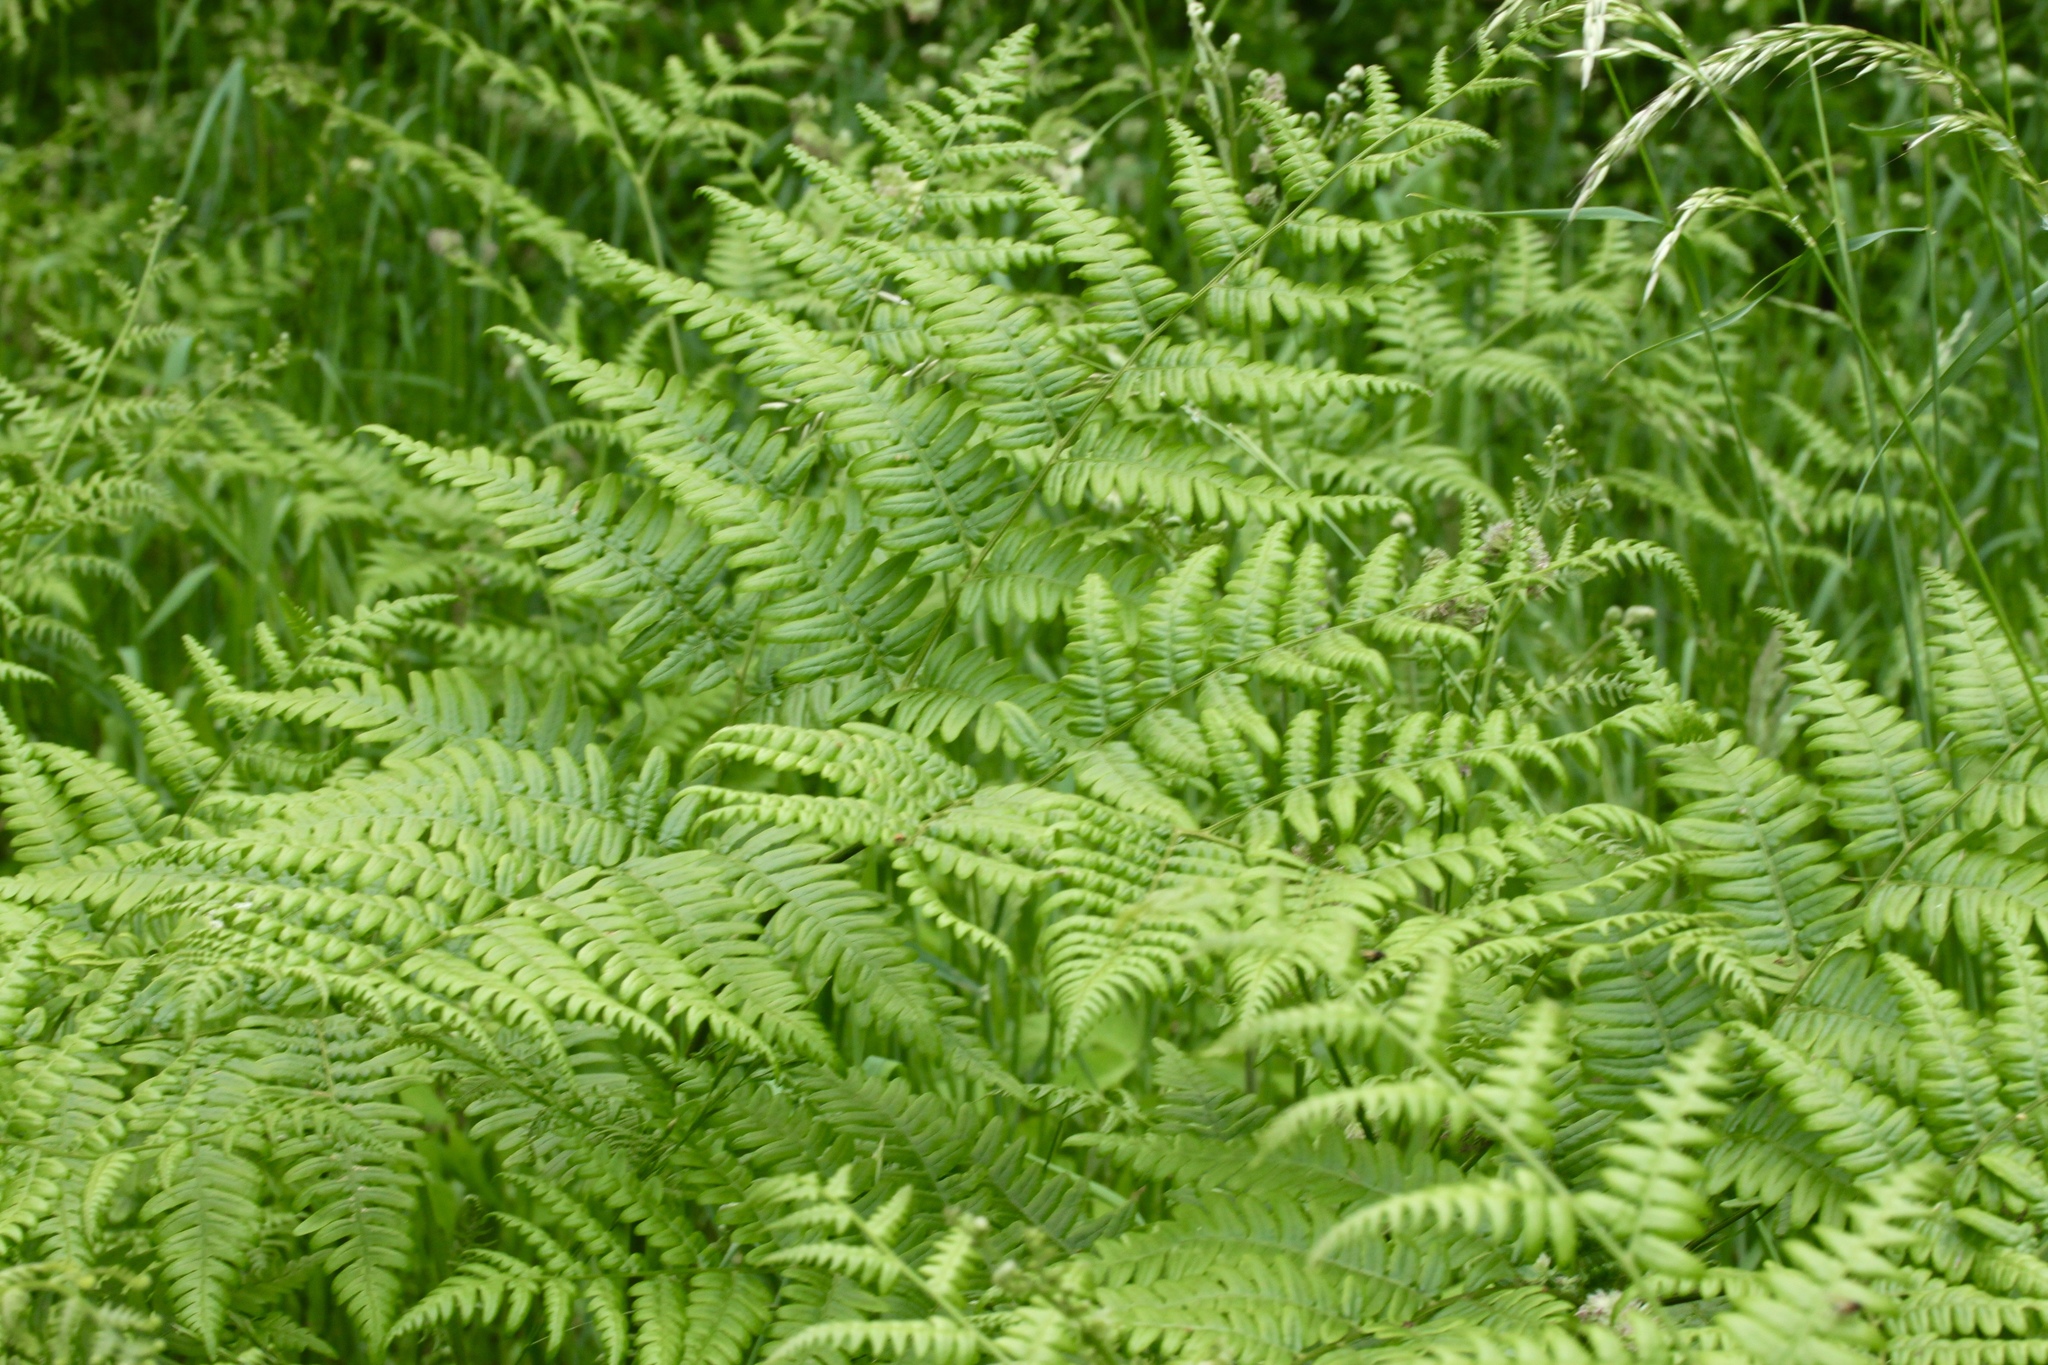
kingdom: Plantae
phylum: Tracheophyta
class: Polypodiopsida
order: Polypodiales
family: Dennstaedtiaceae
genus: Pteridium
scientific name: Pteridium aquilinum
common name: Bracken
